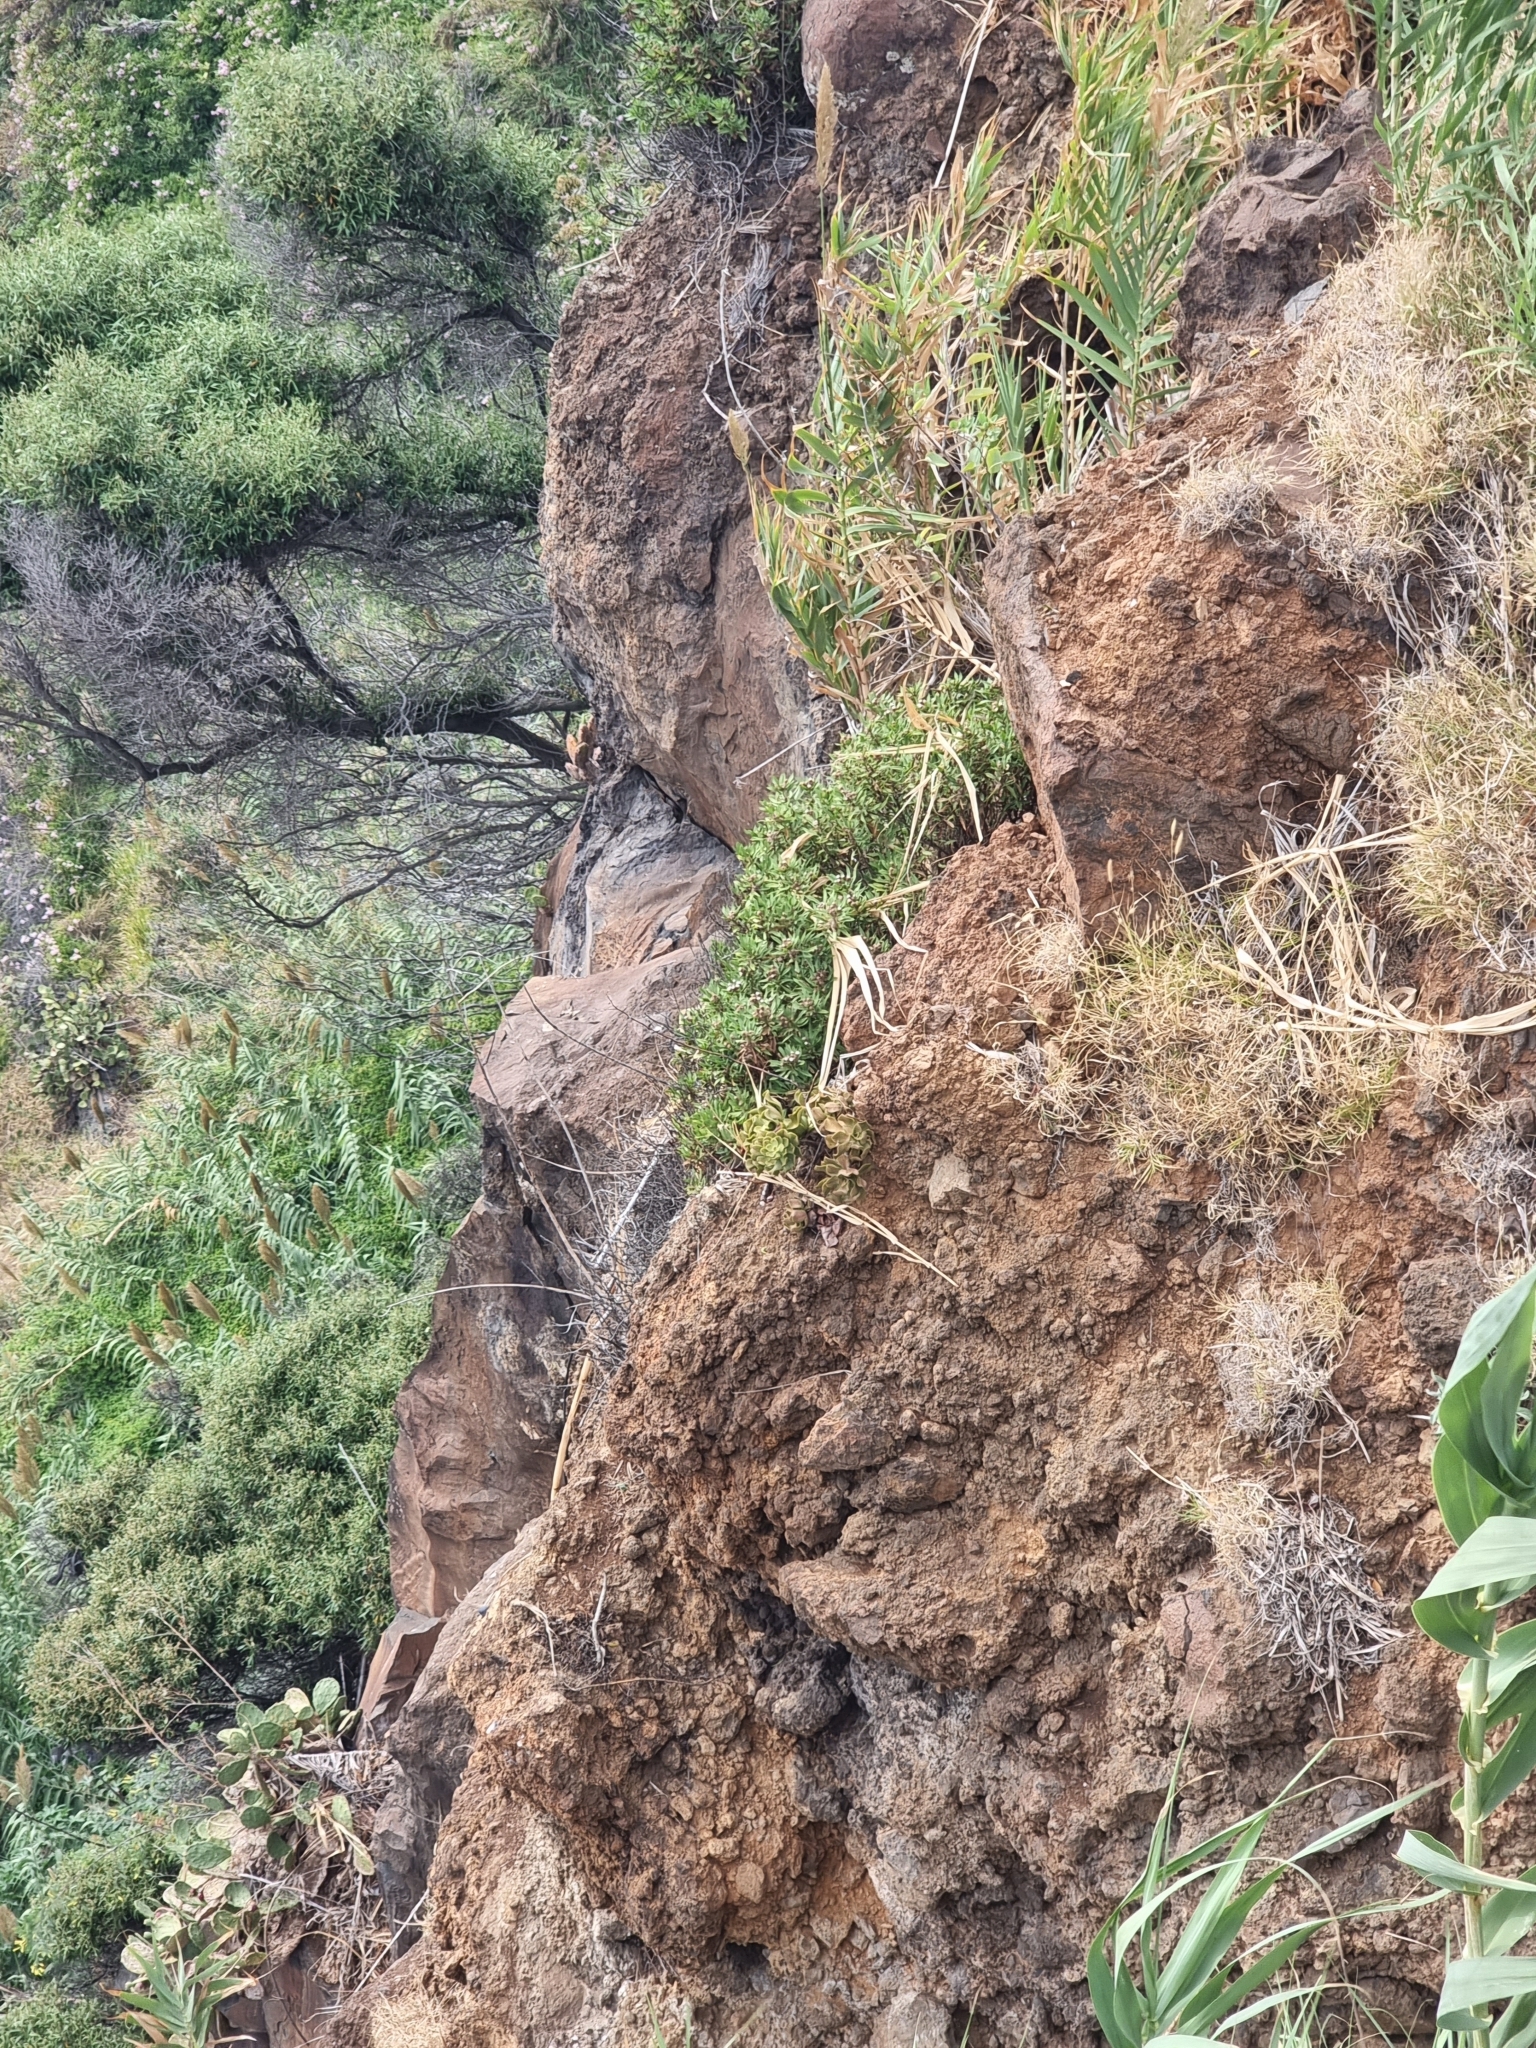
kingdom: Plantae
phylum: Tracheophyta
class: Magnoliopsida
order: Lamiales
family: Plantaginaceae
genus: Globularia
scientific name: Globularia salicina
